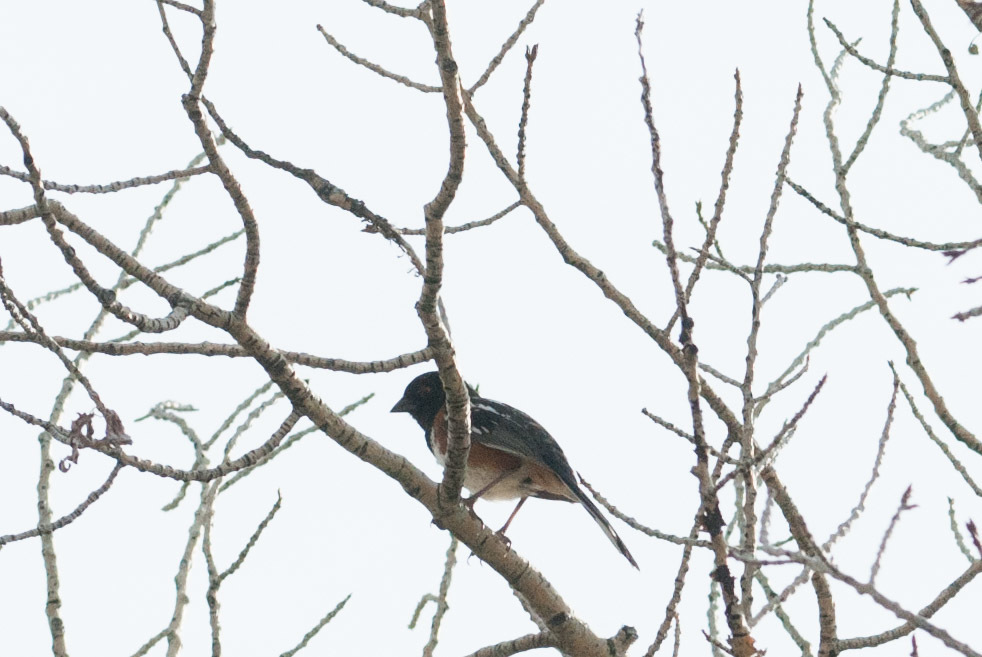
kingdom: Animalia
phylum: Chordata
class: Aves
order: Passeriformes
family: Passerellidae
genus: Pipilo
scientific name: Pipilo maculatus
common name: Spotted towhee
